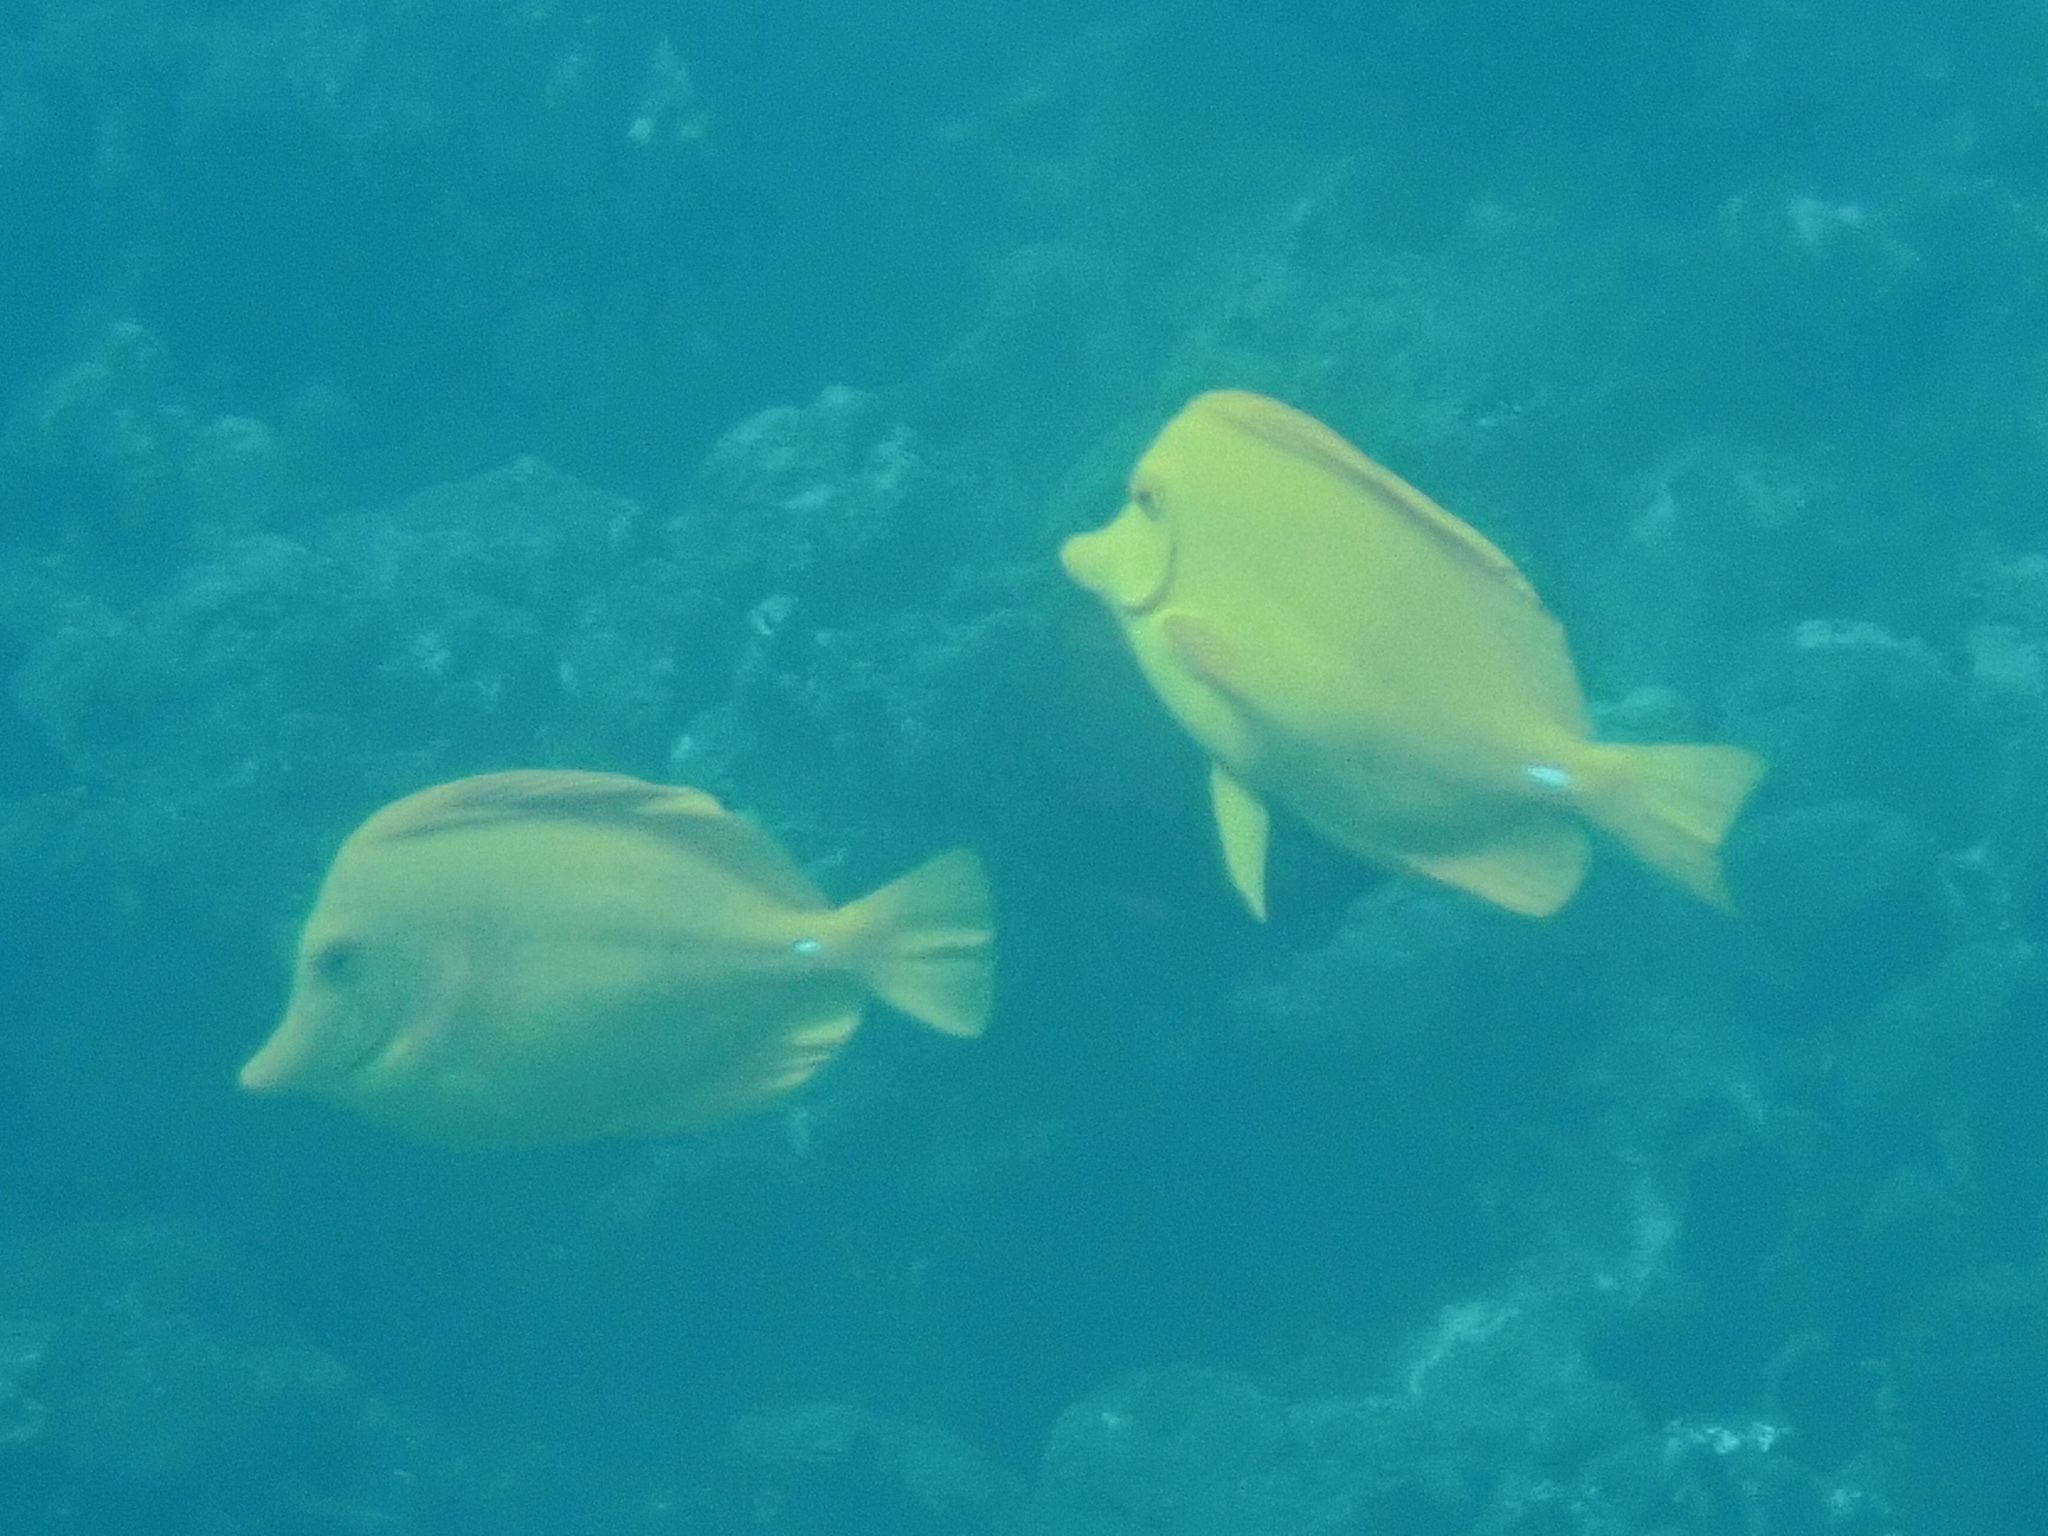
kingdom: Animalia
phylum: Chordata
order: Perciformes
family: Acanthuridae
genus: Zebrasoma
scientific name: Zebrasoma flavescens
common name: Yellow tang
